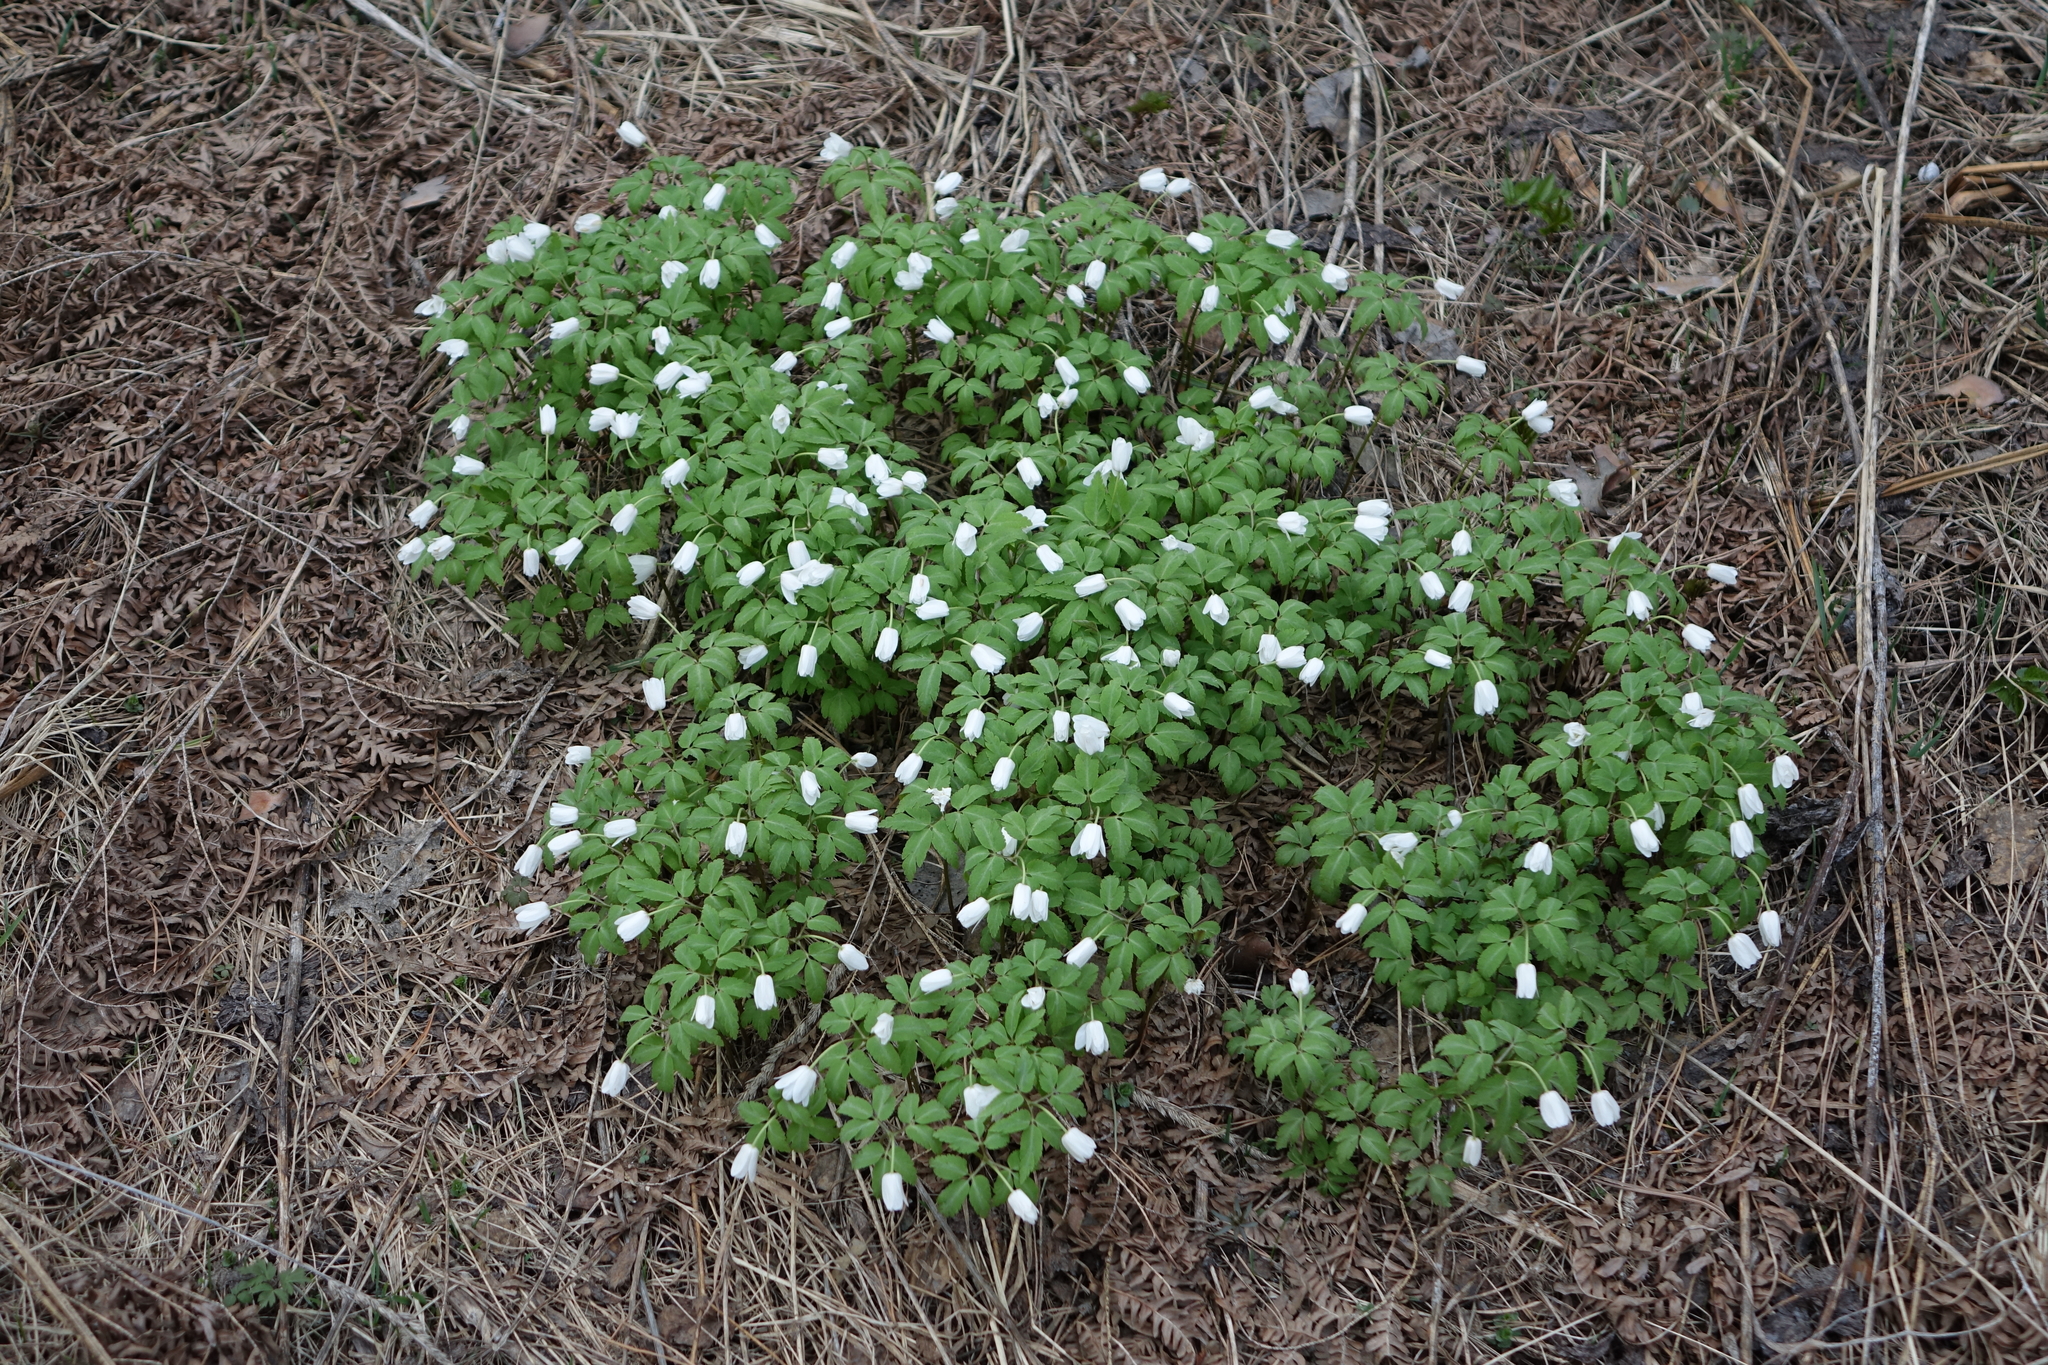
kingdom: Plantae
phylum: Tracheophyta
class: Magnoliopsida
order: Ranunculales
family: Ranunculaceae
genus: Anemone
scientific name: Anemone altaica
